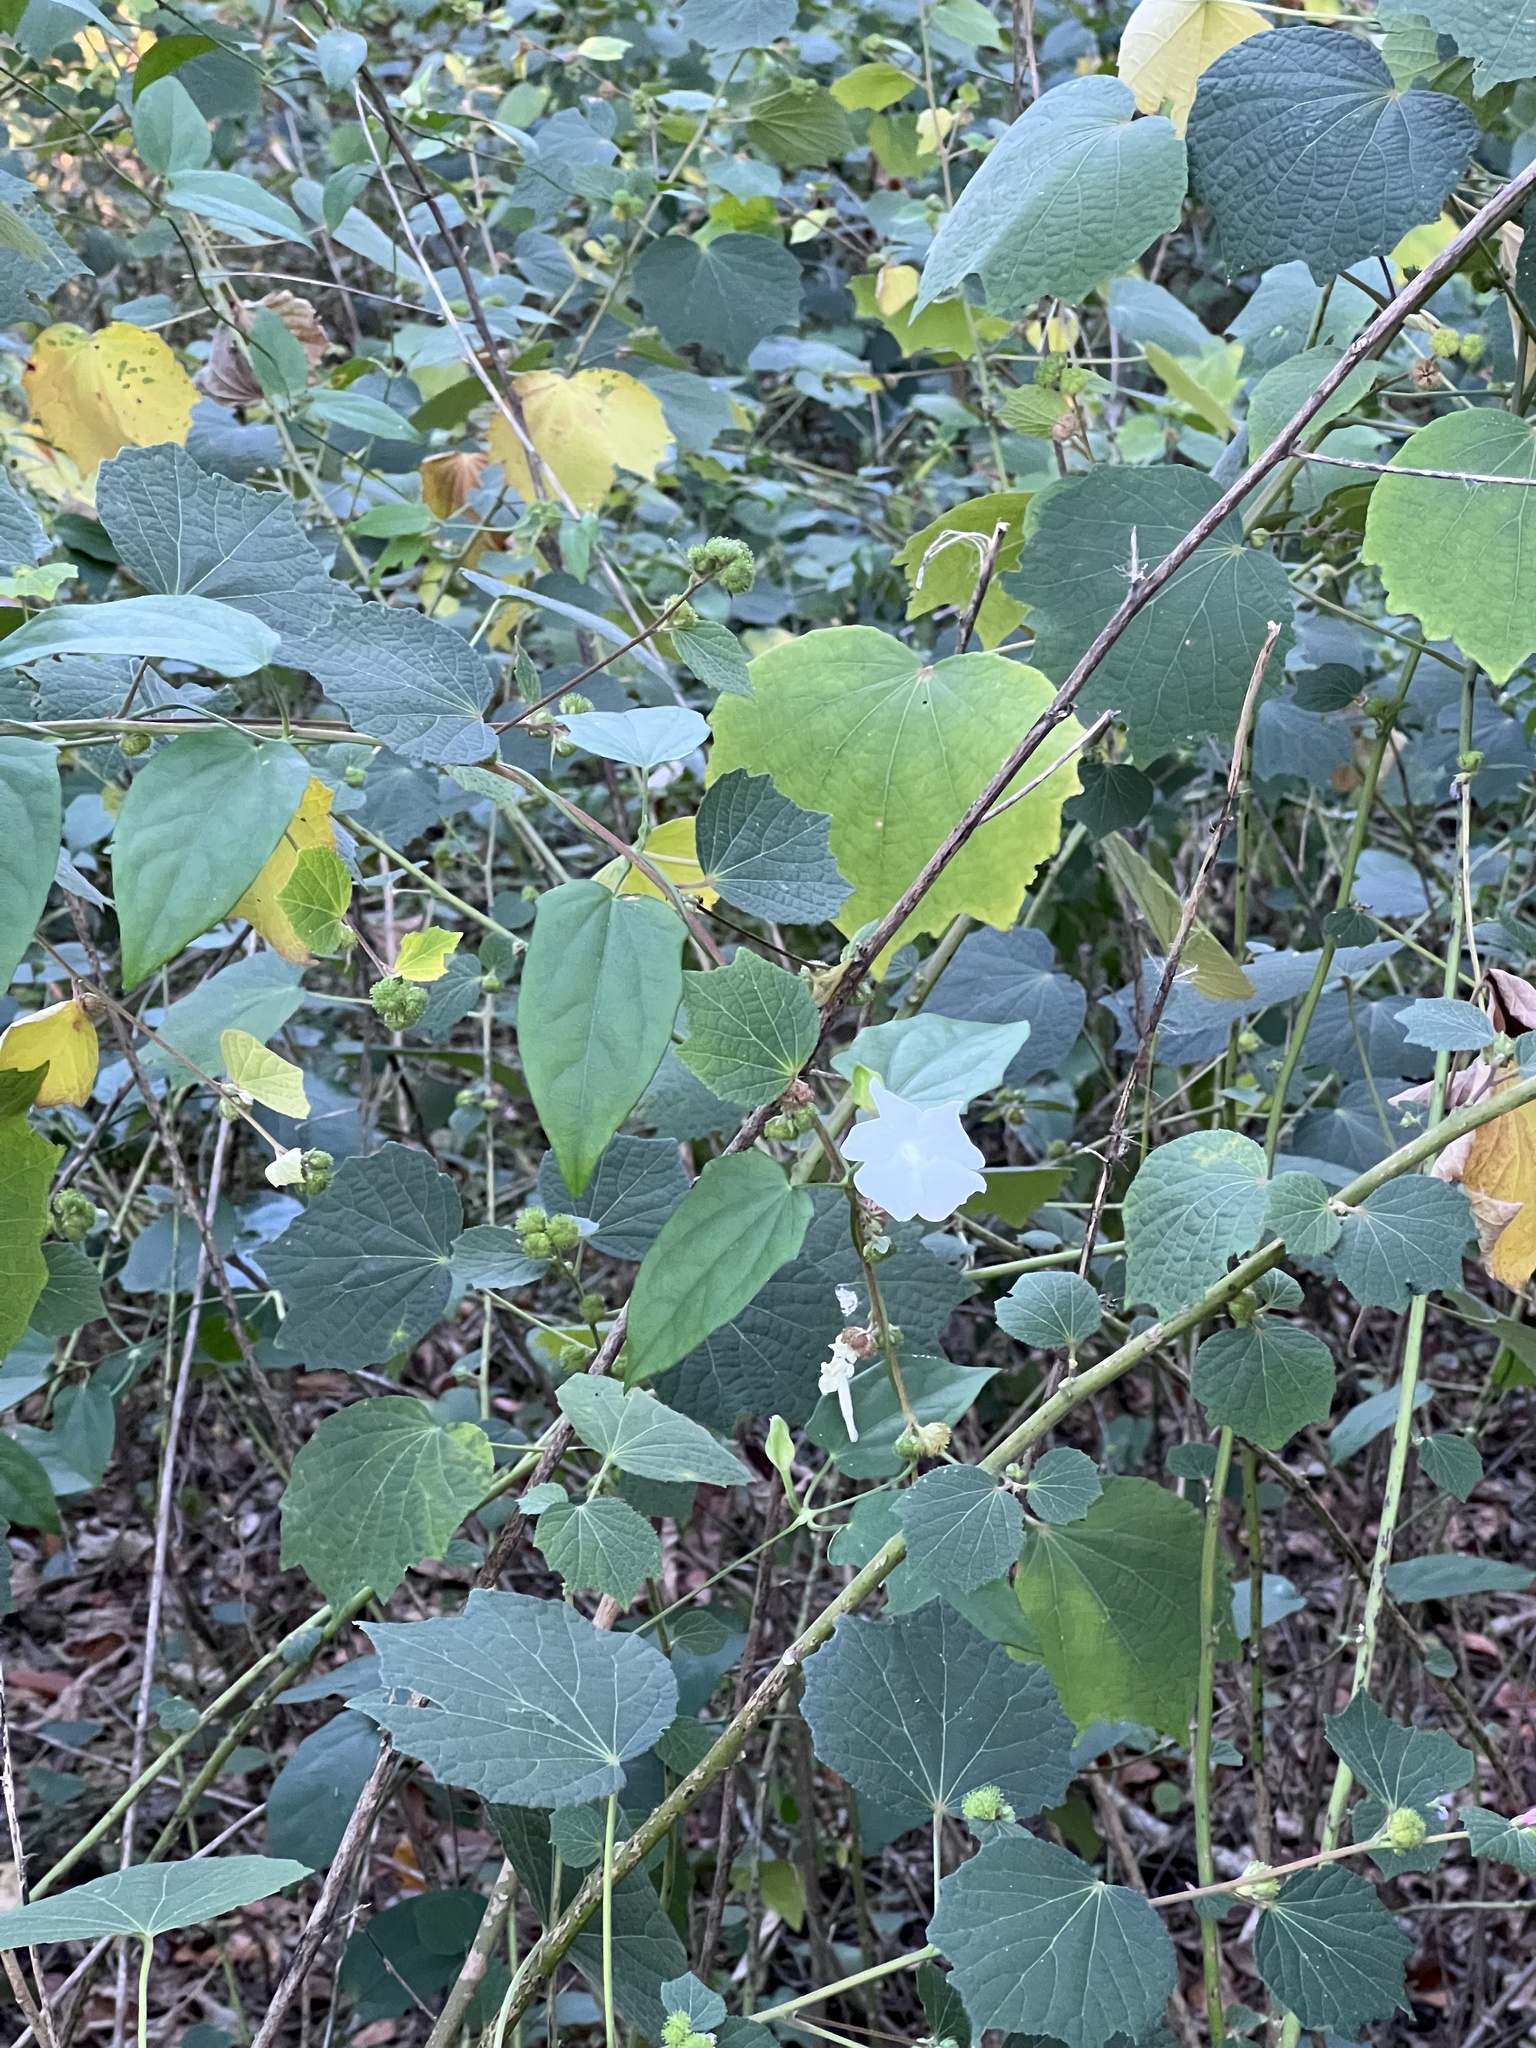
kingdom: Plantae
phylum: Tracheophyta
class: Magnoliopsida
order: Malvales
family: Malvaceae
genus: Urena
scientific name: Urena lobata
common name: Caesarweed
